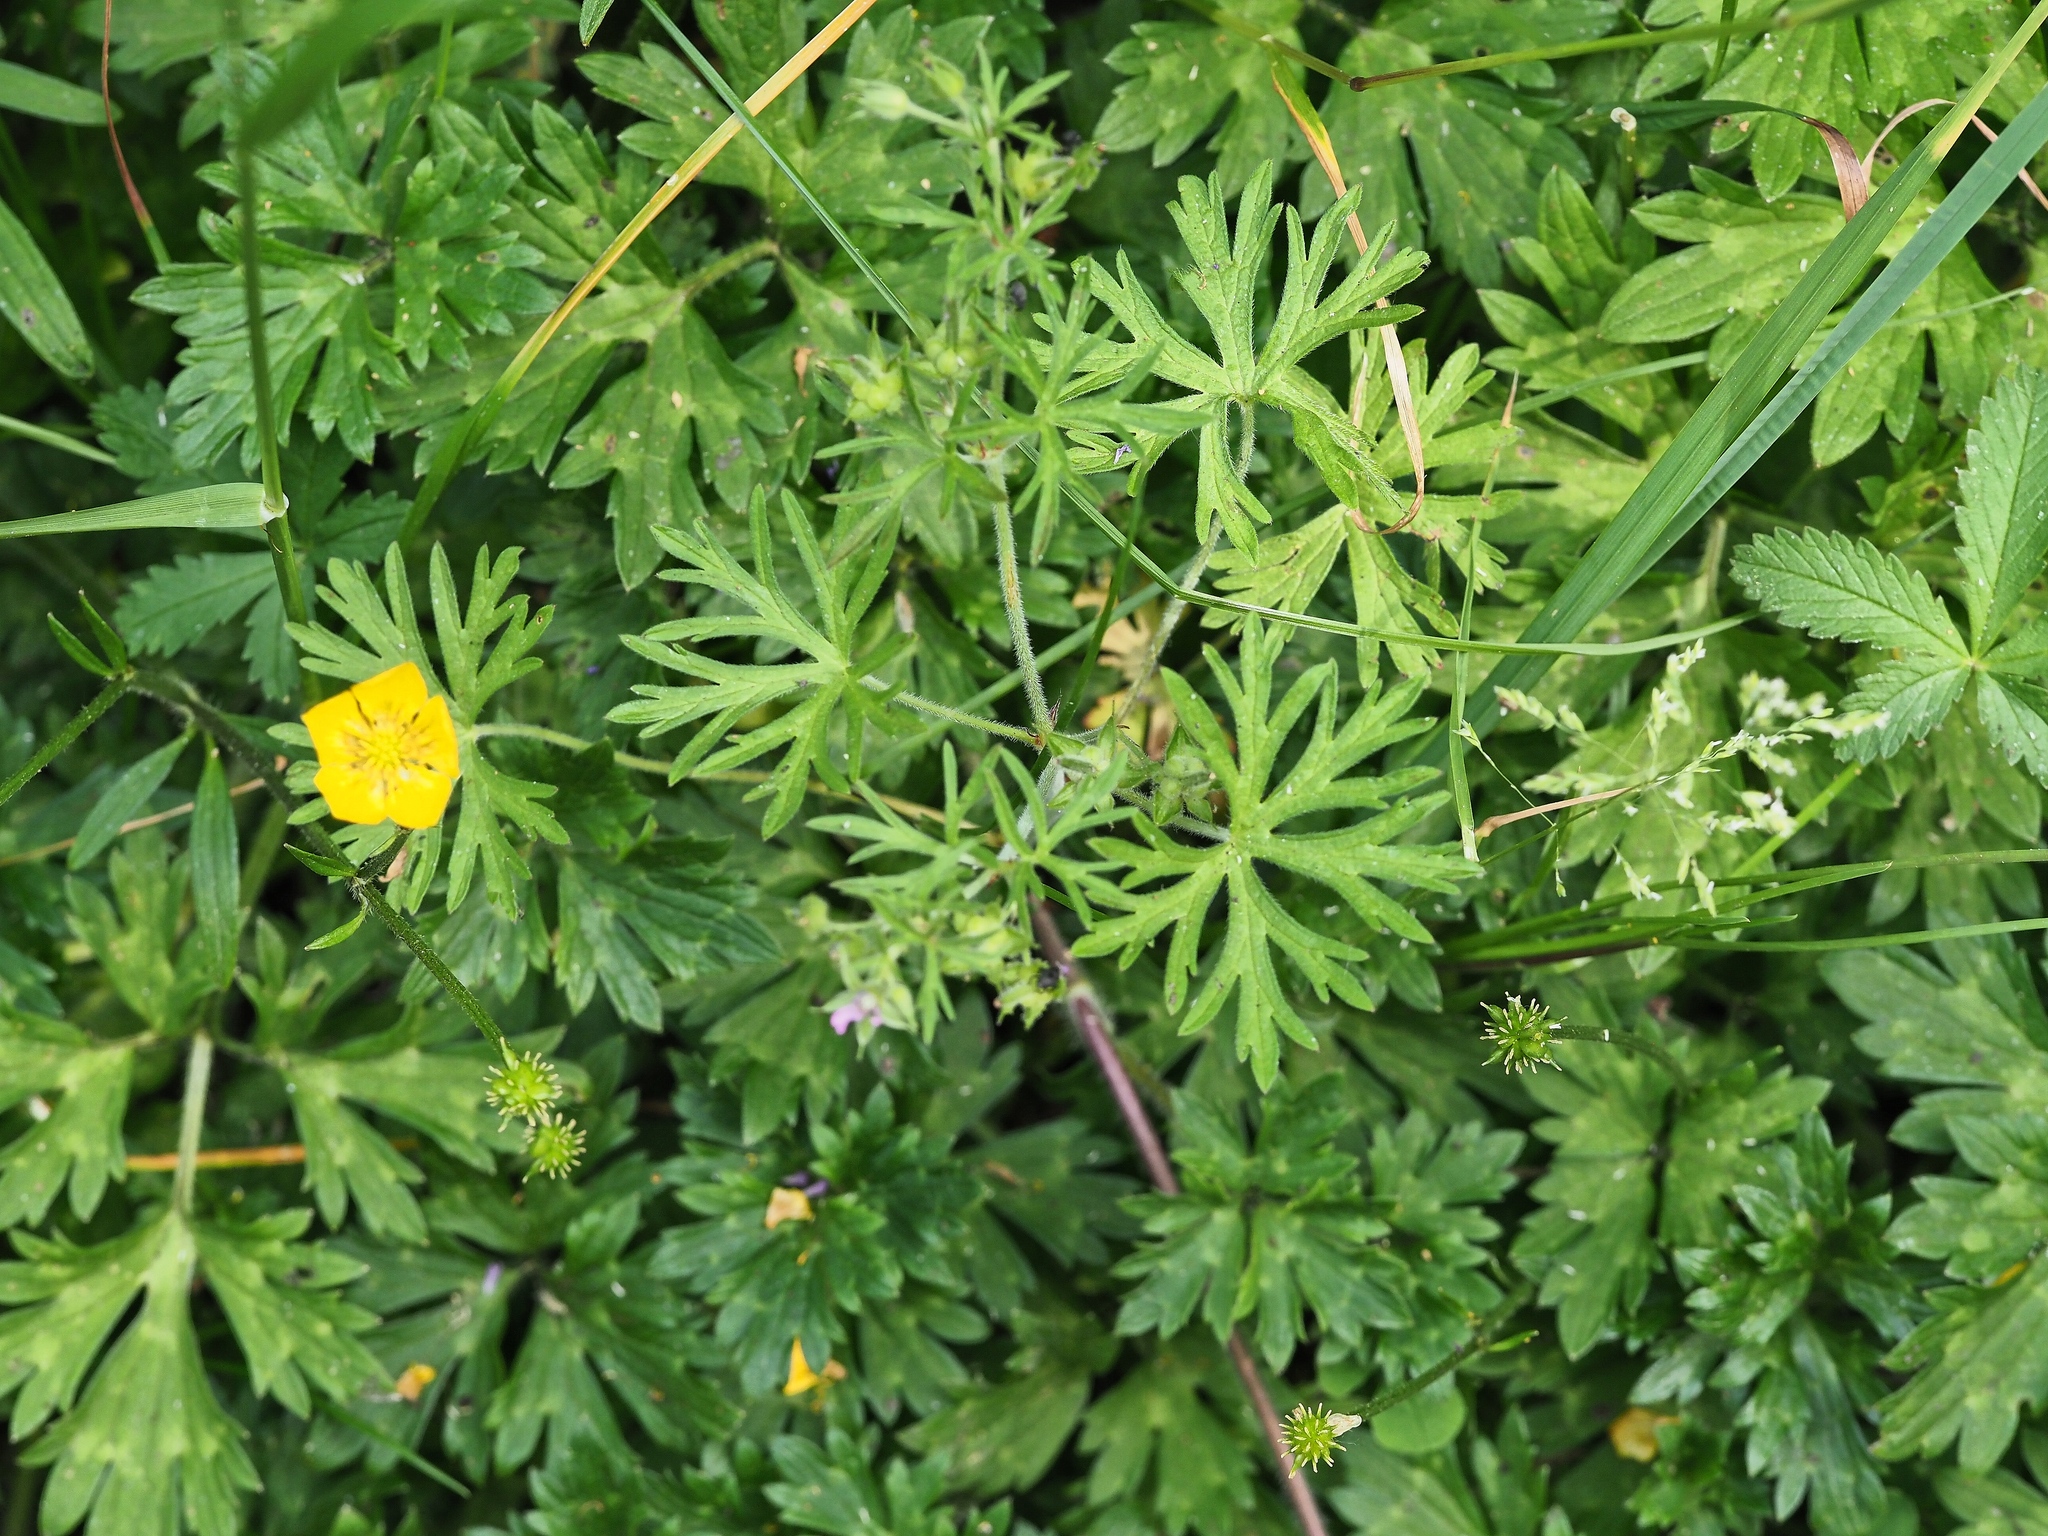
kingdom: Plantae
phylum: Tracheophyta
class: Magnoliopsida
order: Ranunculales
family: Ranunculaceae
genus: Ranunculus
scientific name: Ranunculus repens
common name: Creeping buttercup
